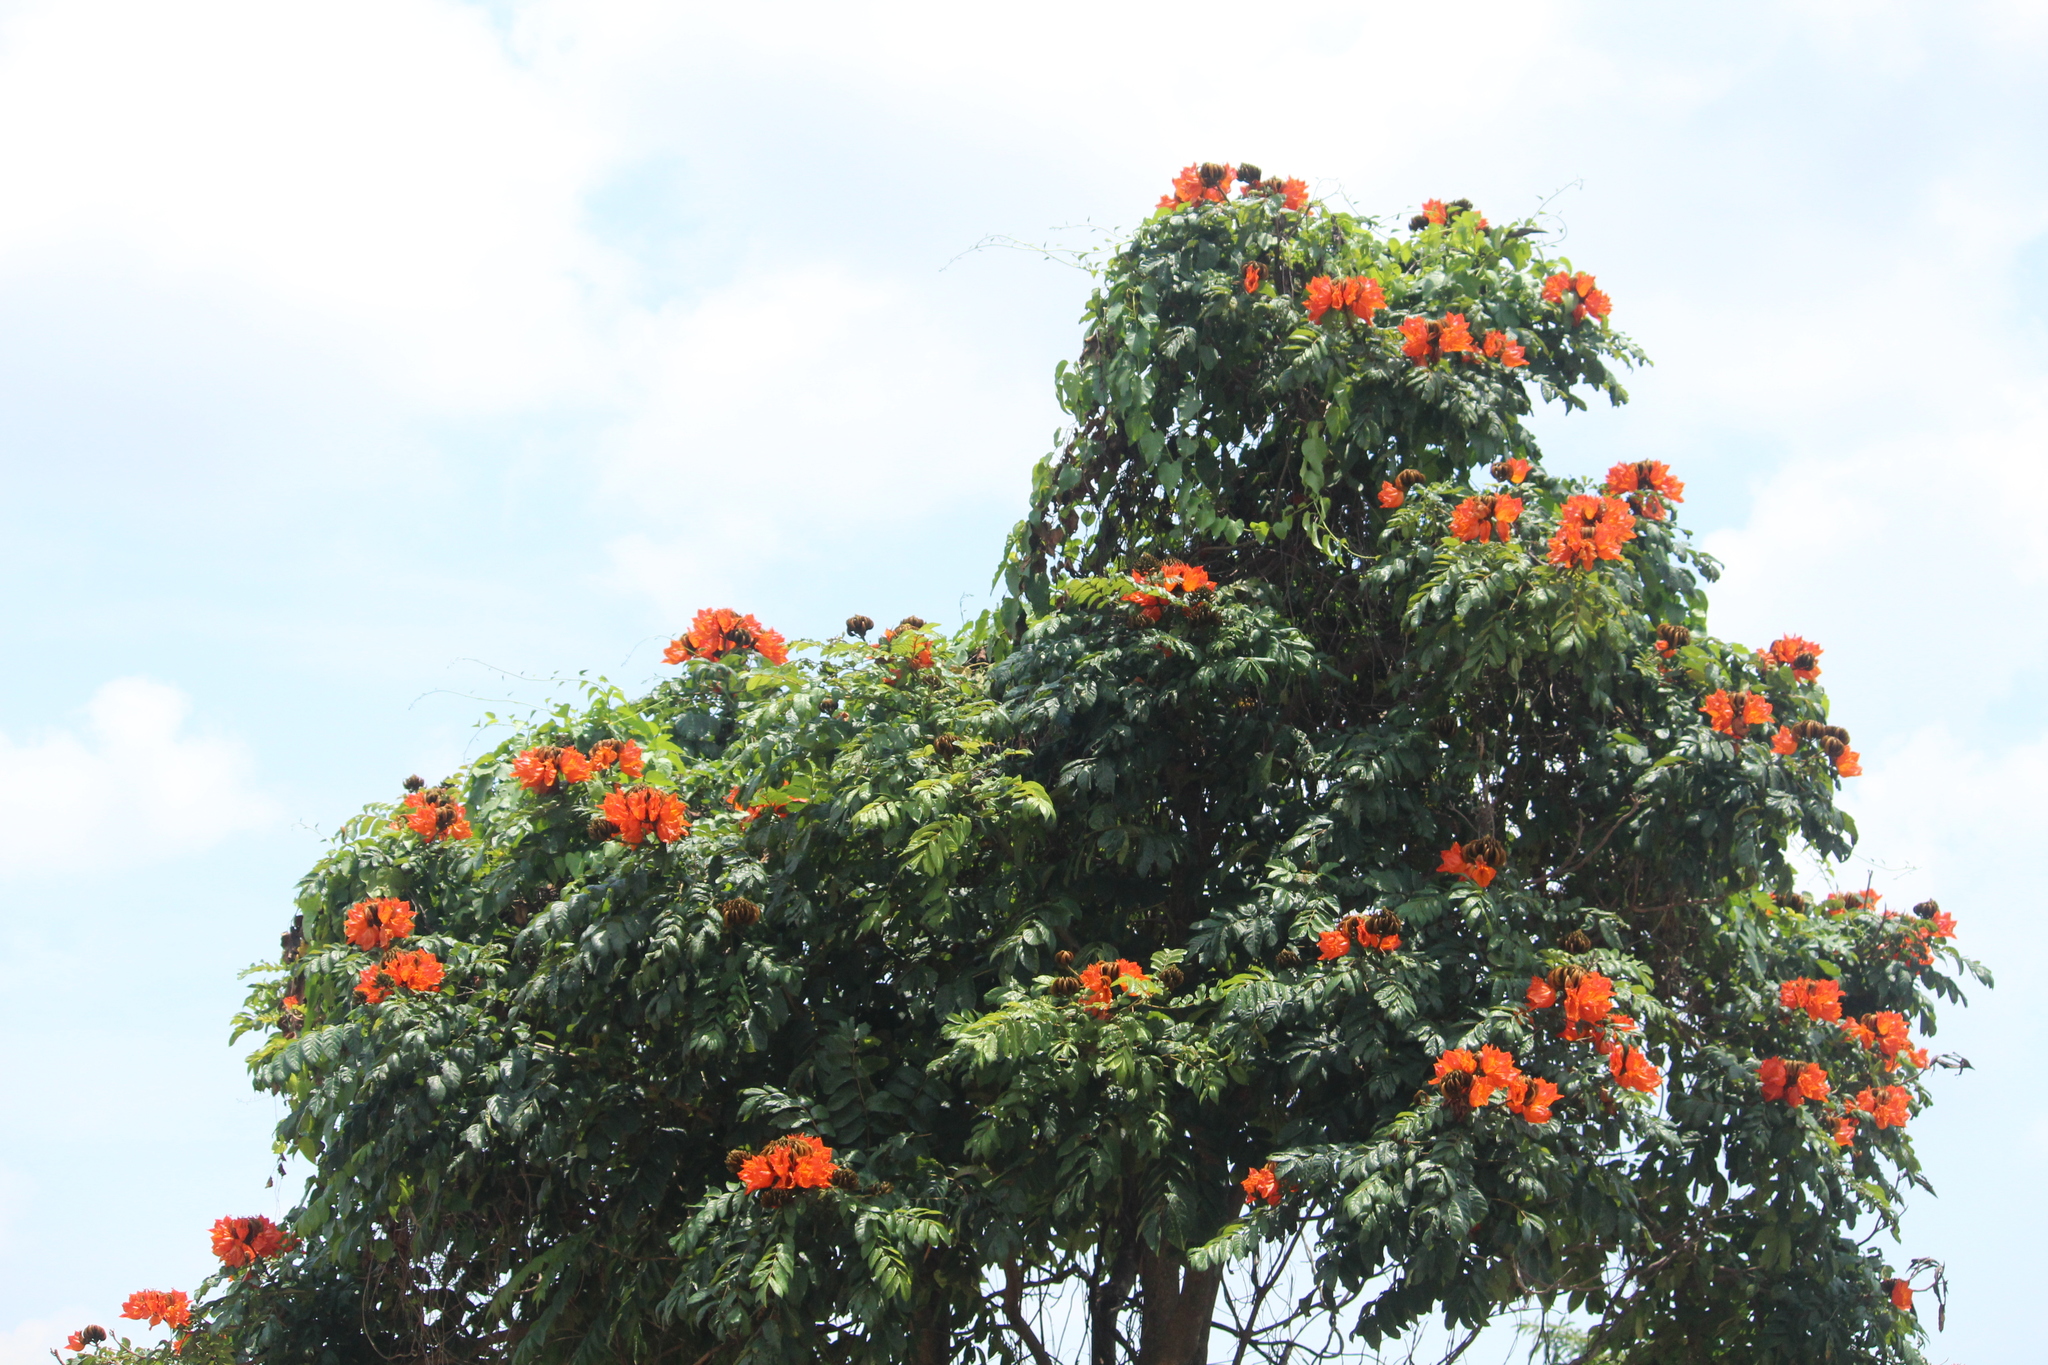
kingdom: Plantae
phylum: Tracheophyta
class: Magnoliopsida
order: Lamiales
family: Bignoniaceae
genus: Spathodea
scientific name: Spathodea campanulata
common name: African tuliptree
